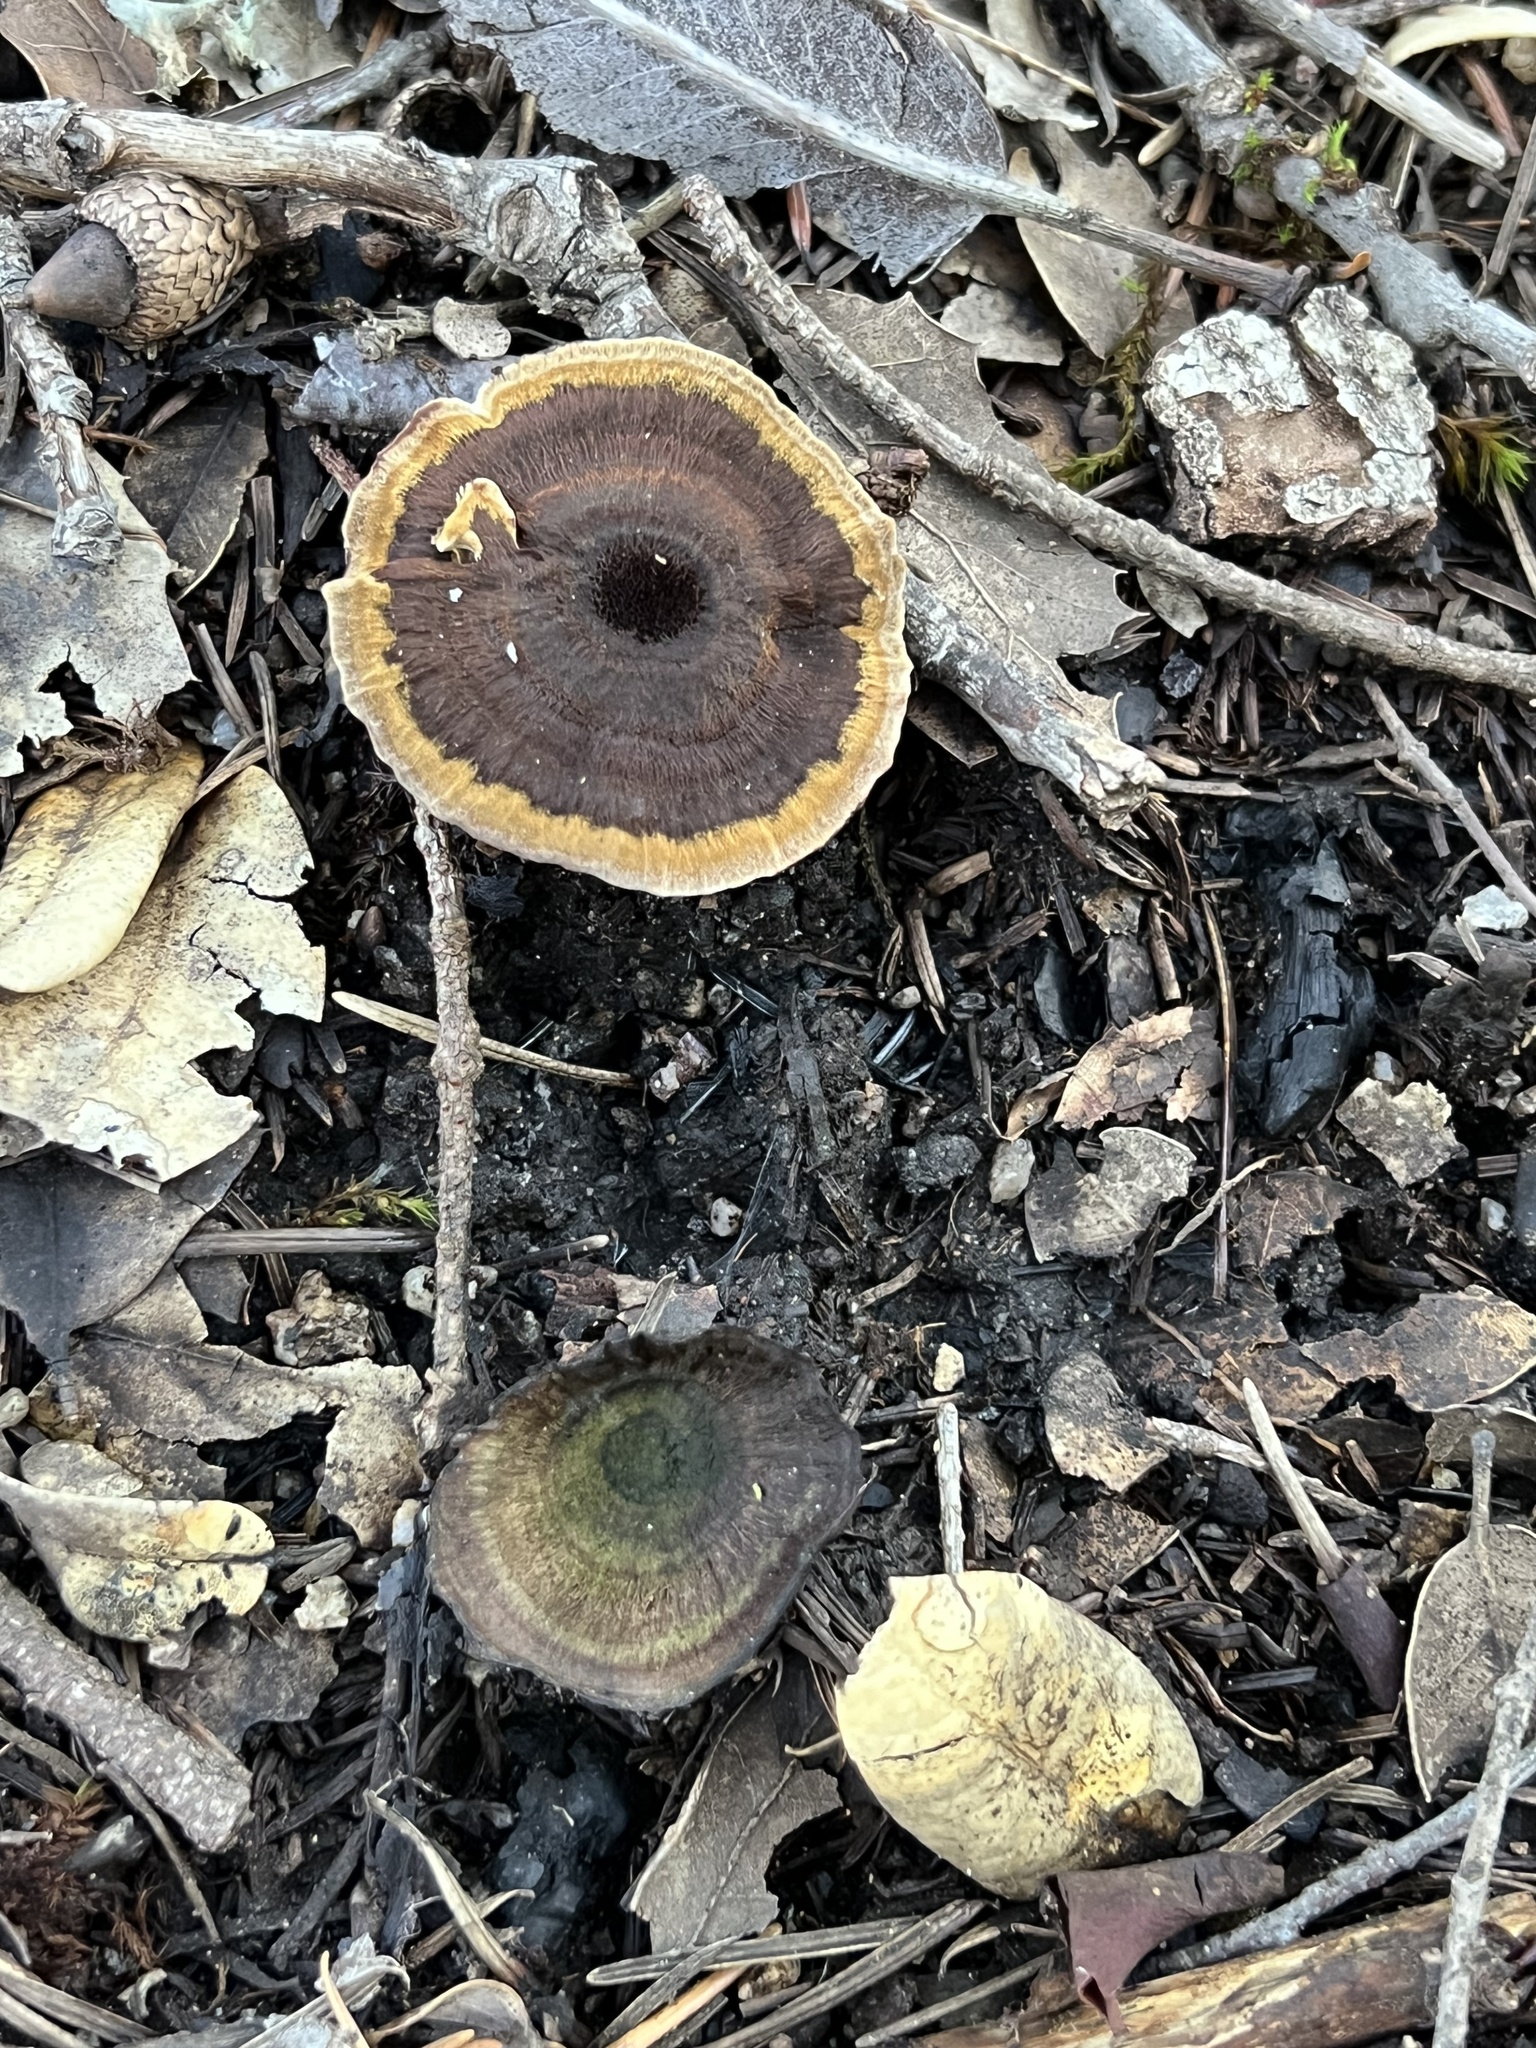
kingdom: Fungi
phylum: Basidiomycota
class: Agaricomycetes
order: Hymenochaetales
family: Hymenochaetaceae
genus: Coltricia
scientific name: Coltricia perennis
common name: Tiger's eye
